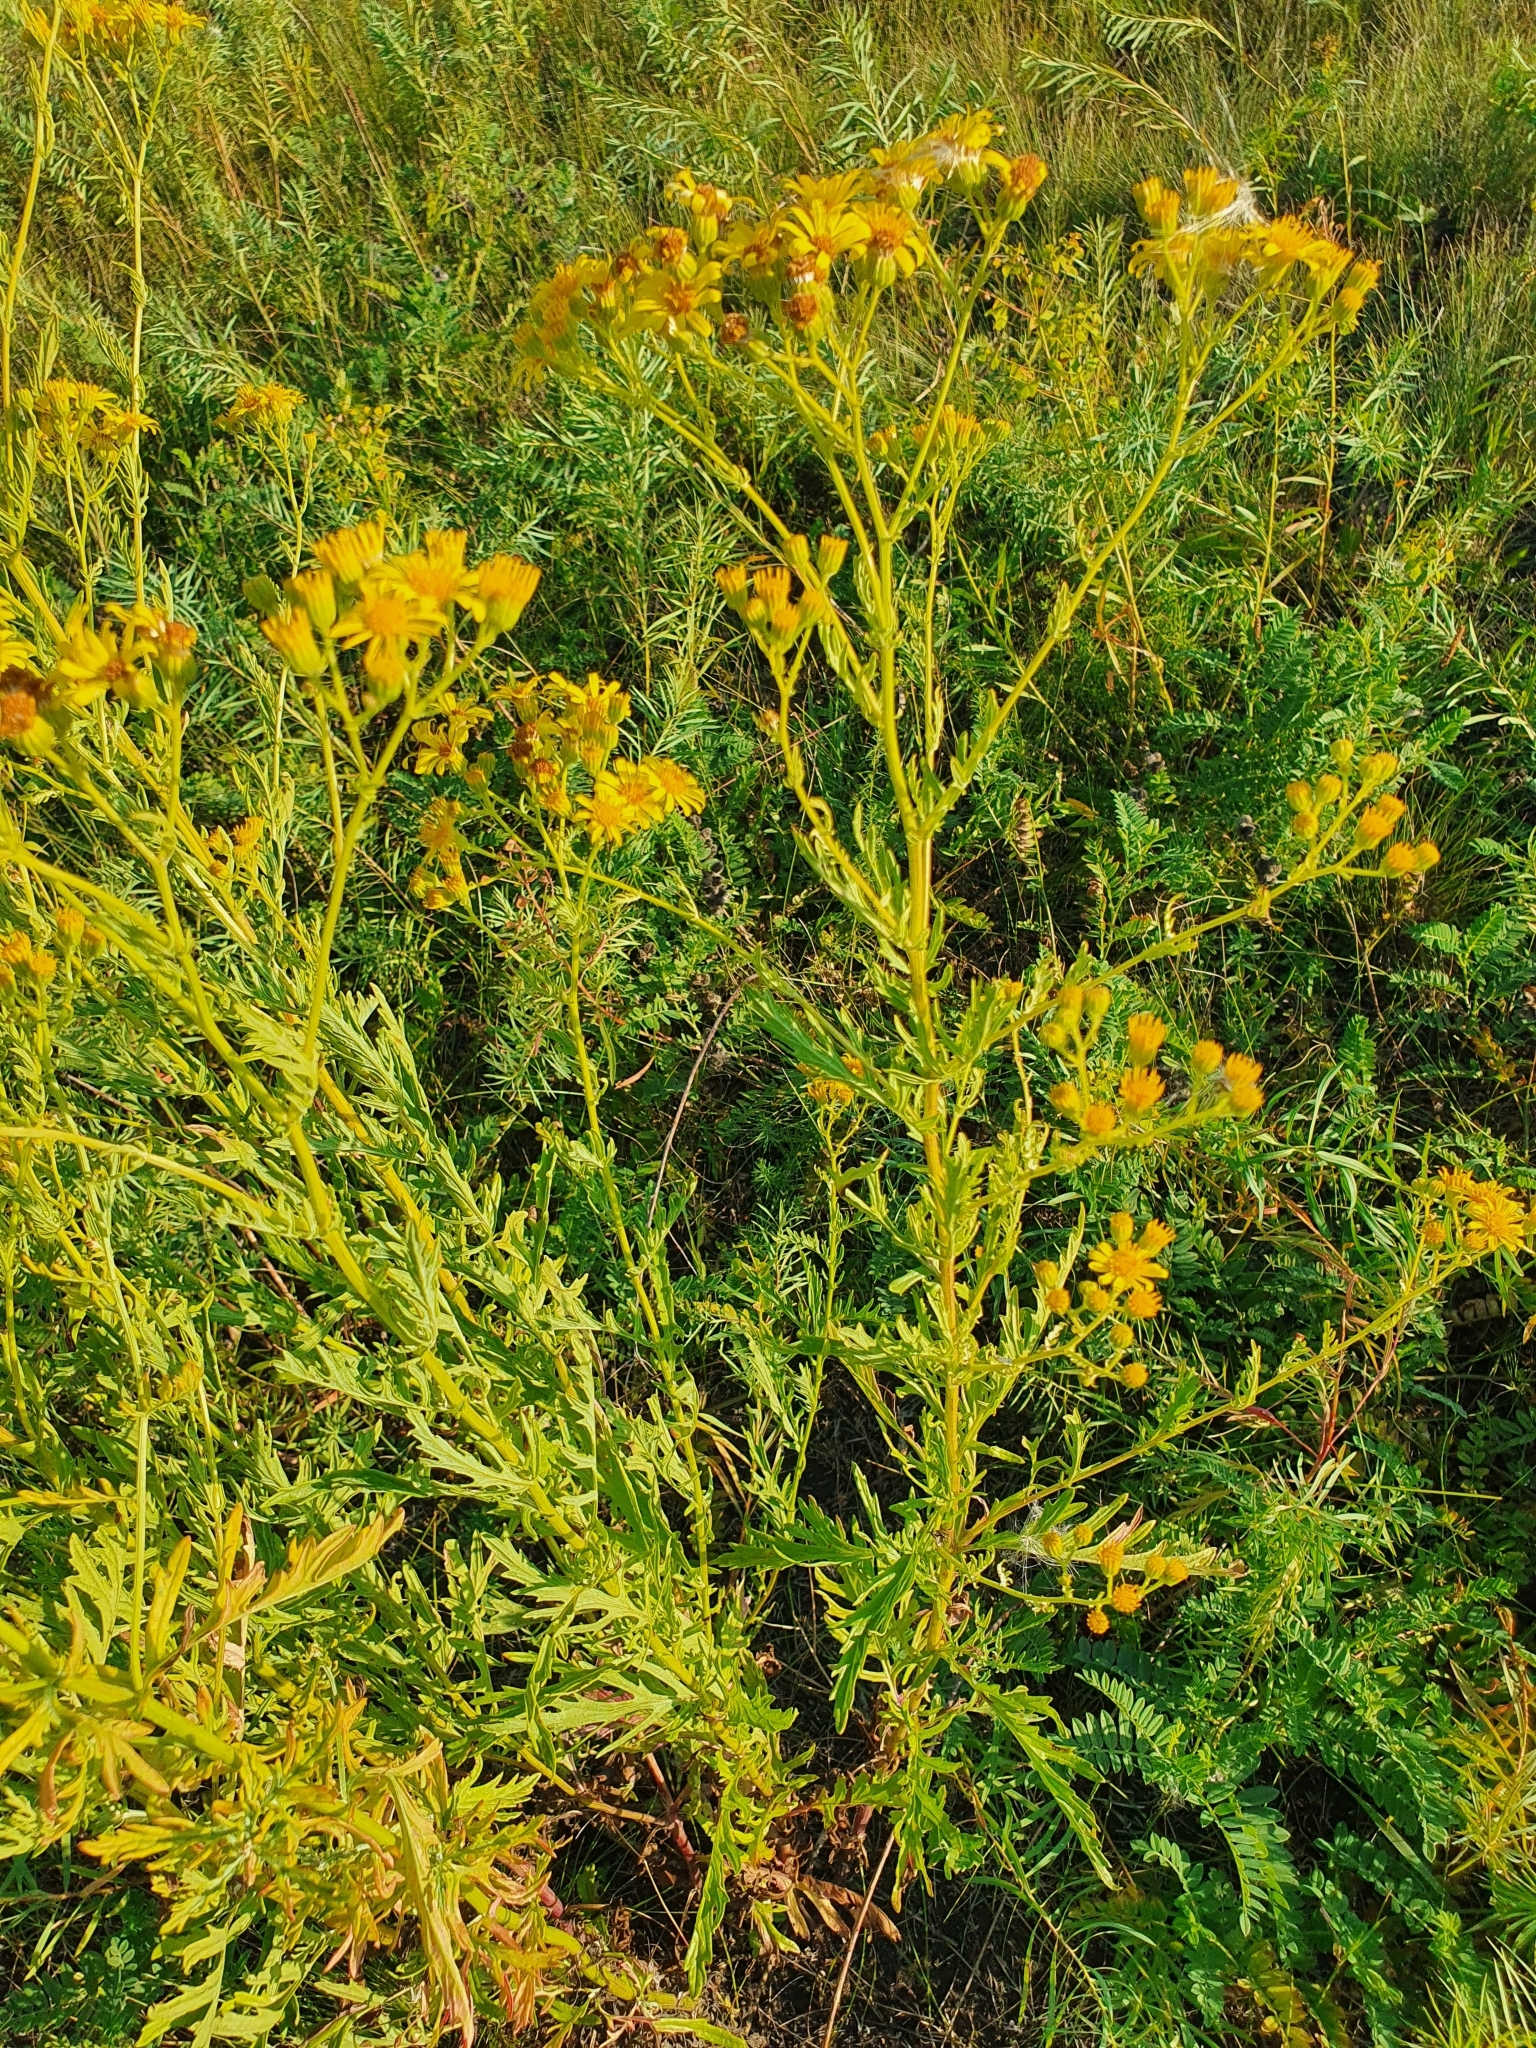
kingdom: Plantae
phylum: Tracheophyta
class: Magnoliopsida
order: Asterales
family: Asteraceae
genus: Jacobaea
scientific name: Jacobaea erucifolia
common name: Hoary ragwort
